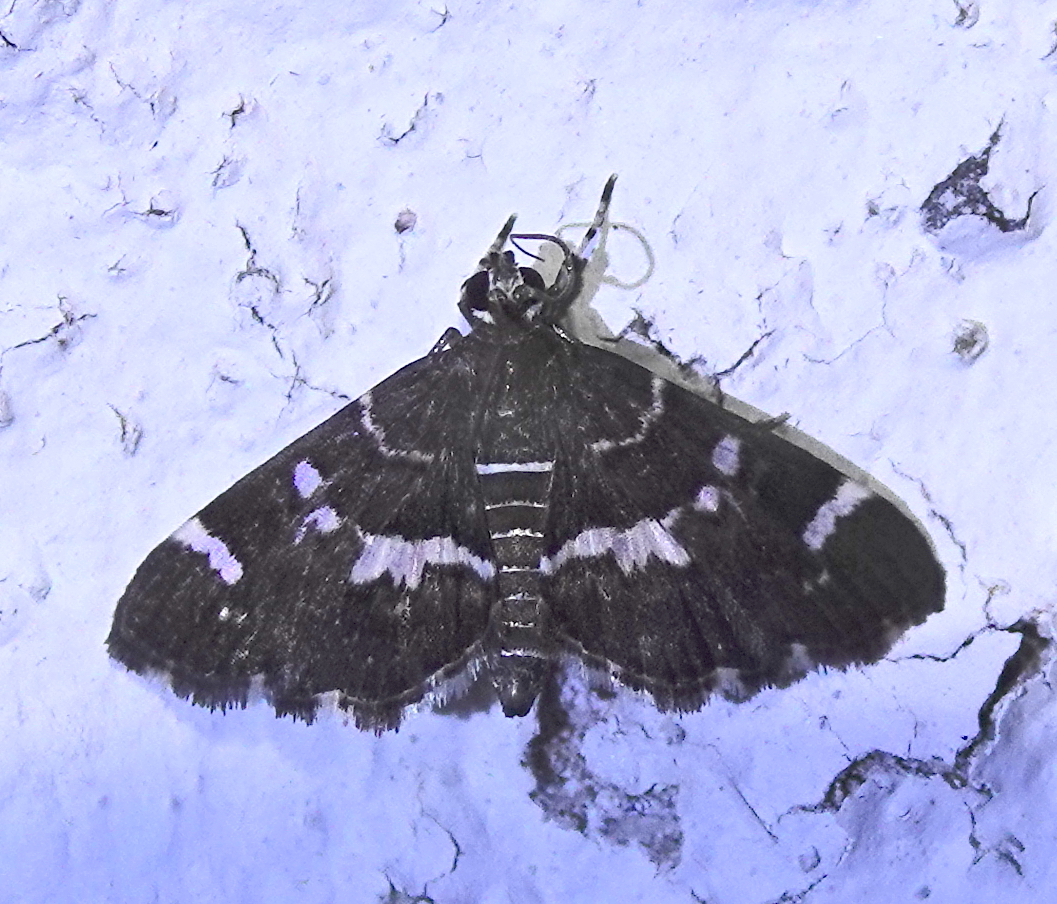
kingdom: Animalia
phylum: Arthropoda
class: Insecta
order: Lepidoptera
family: Crambidae
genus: Hymenia
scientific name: Hymenia perspectalis
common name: Spotted beet webworm
